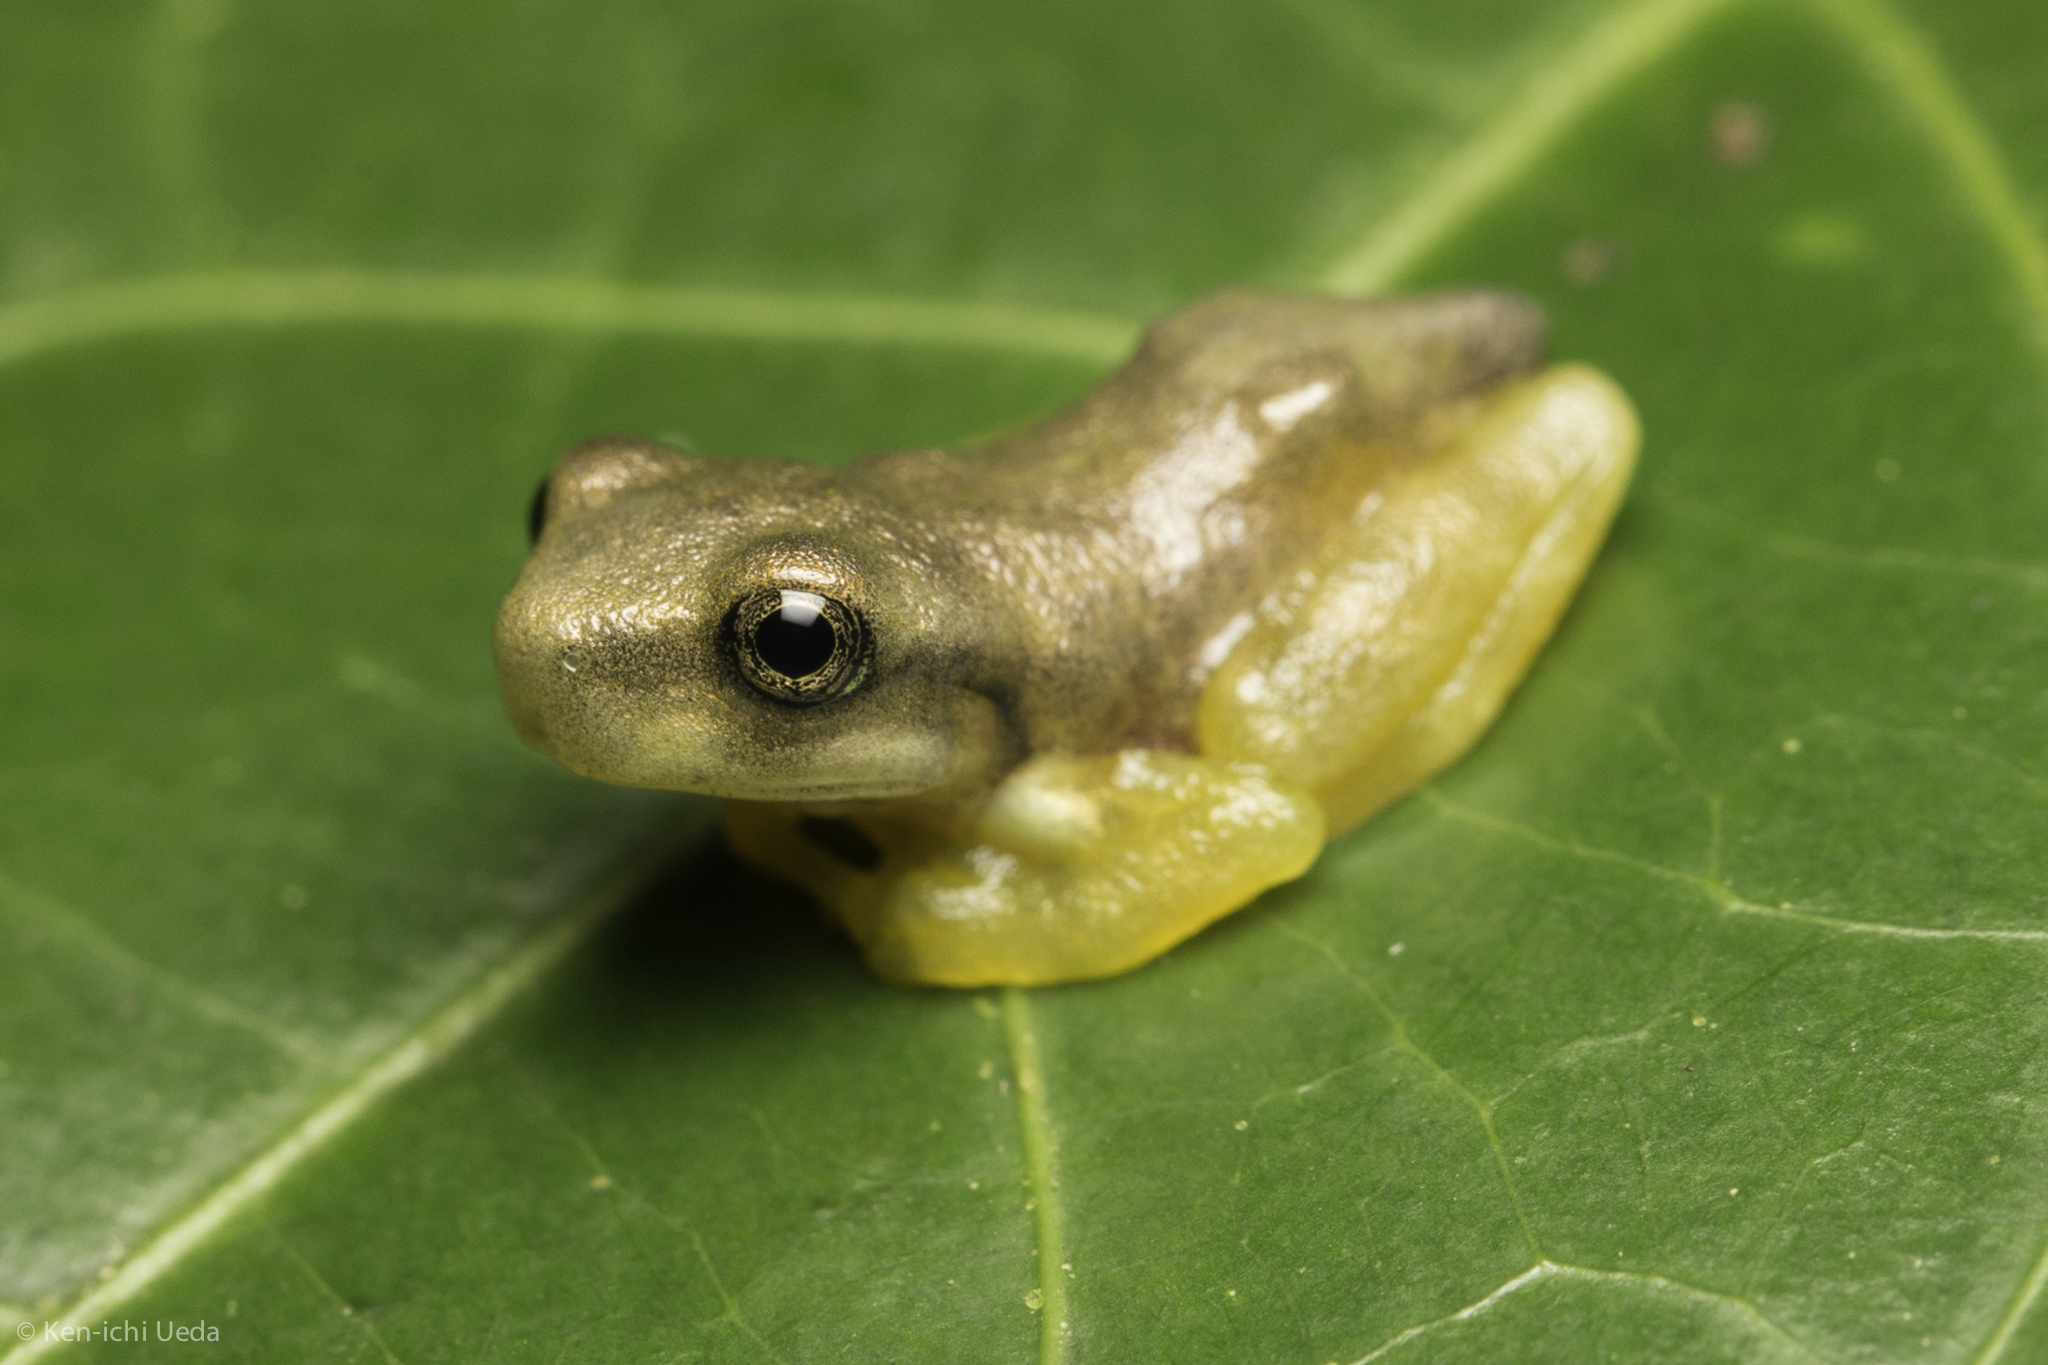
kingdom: Animalia
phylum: Chordata
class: Amphibia
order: Anura
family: Hylidae
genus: Isthmohyla
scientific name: Isthmohyla pseudopuma
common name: Gunther's costa rican treefrog
